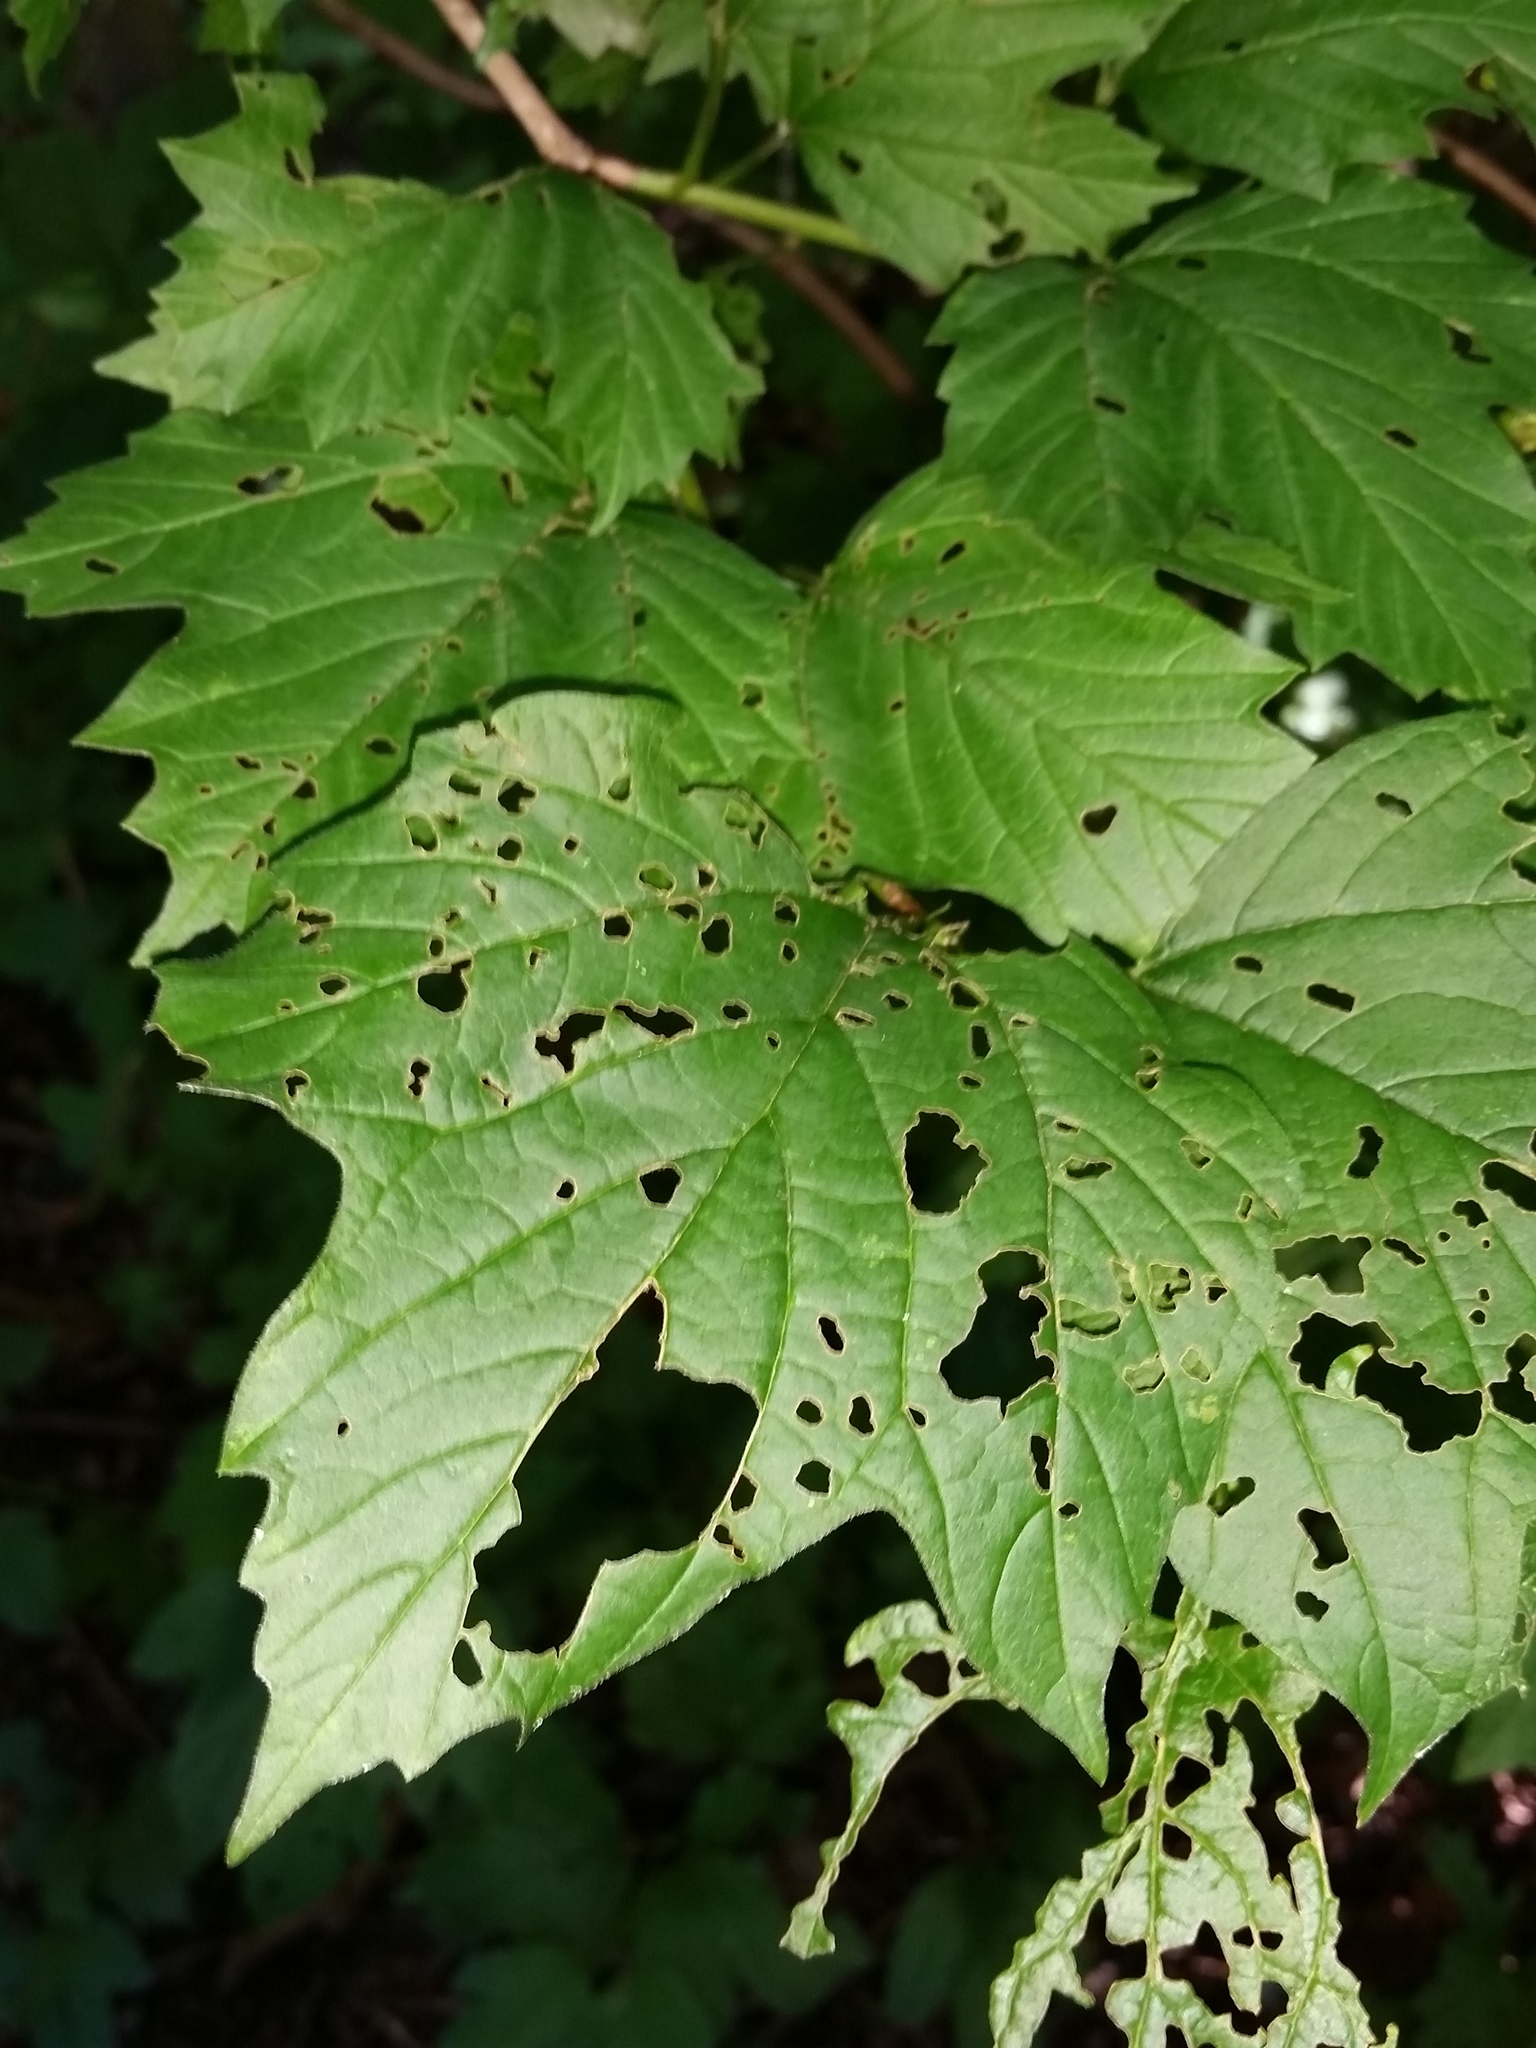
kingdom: Plantae
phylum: Tracheophyta
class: Magnoliopsida
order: Dipsacales
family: Viburnaceae
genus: Viburnum
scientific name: Viburnum trilobum
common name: American cranberrybush
